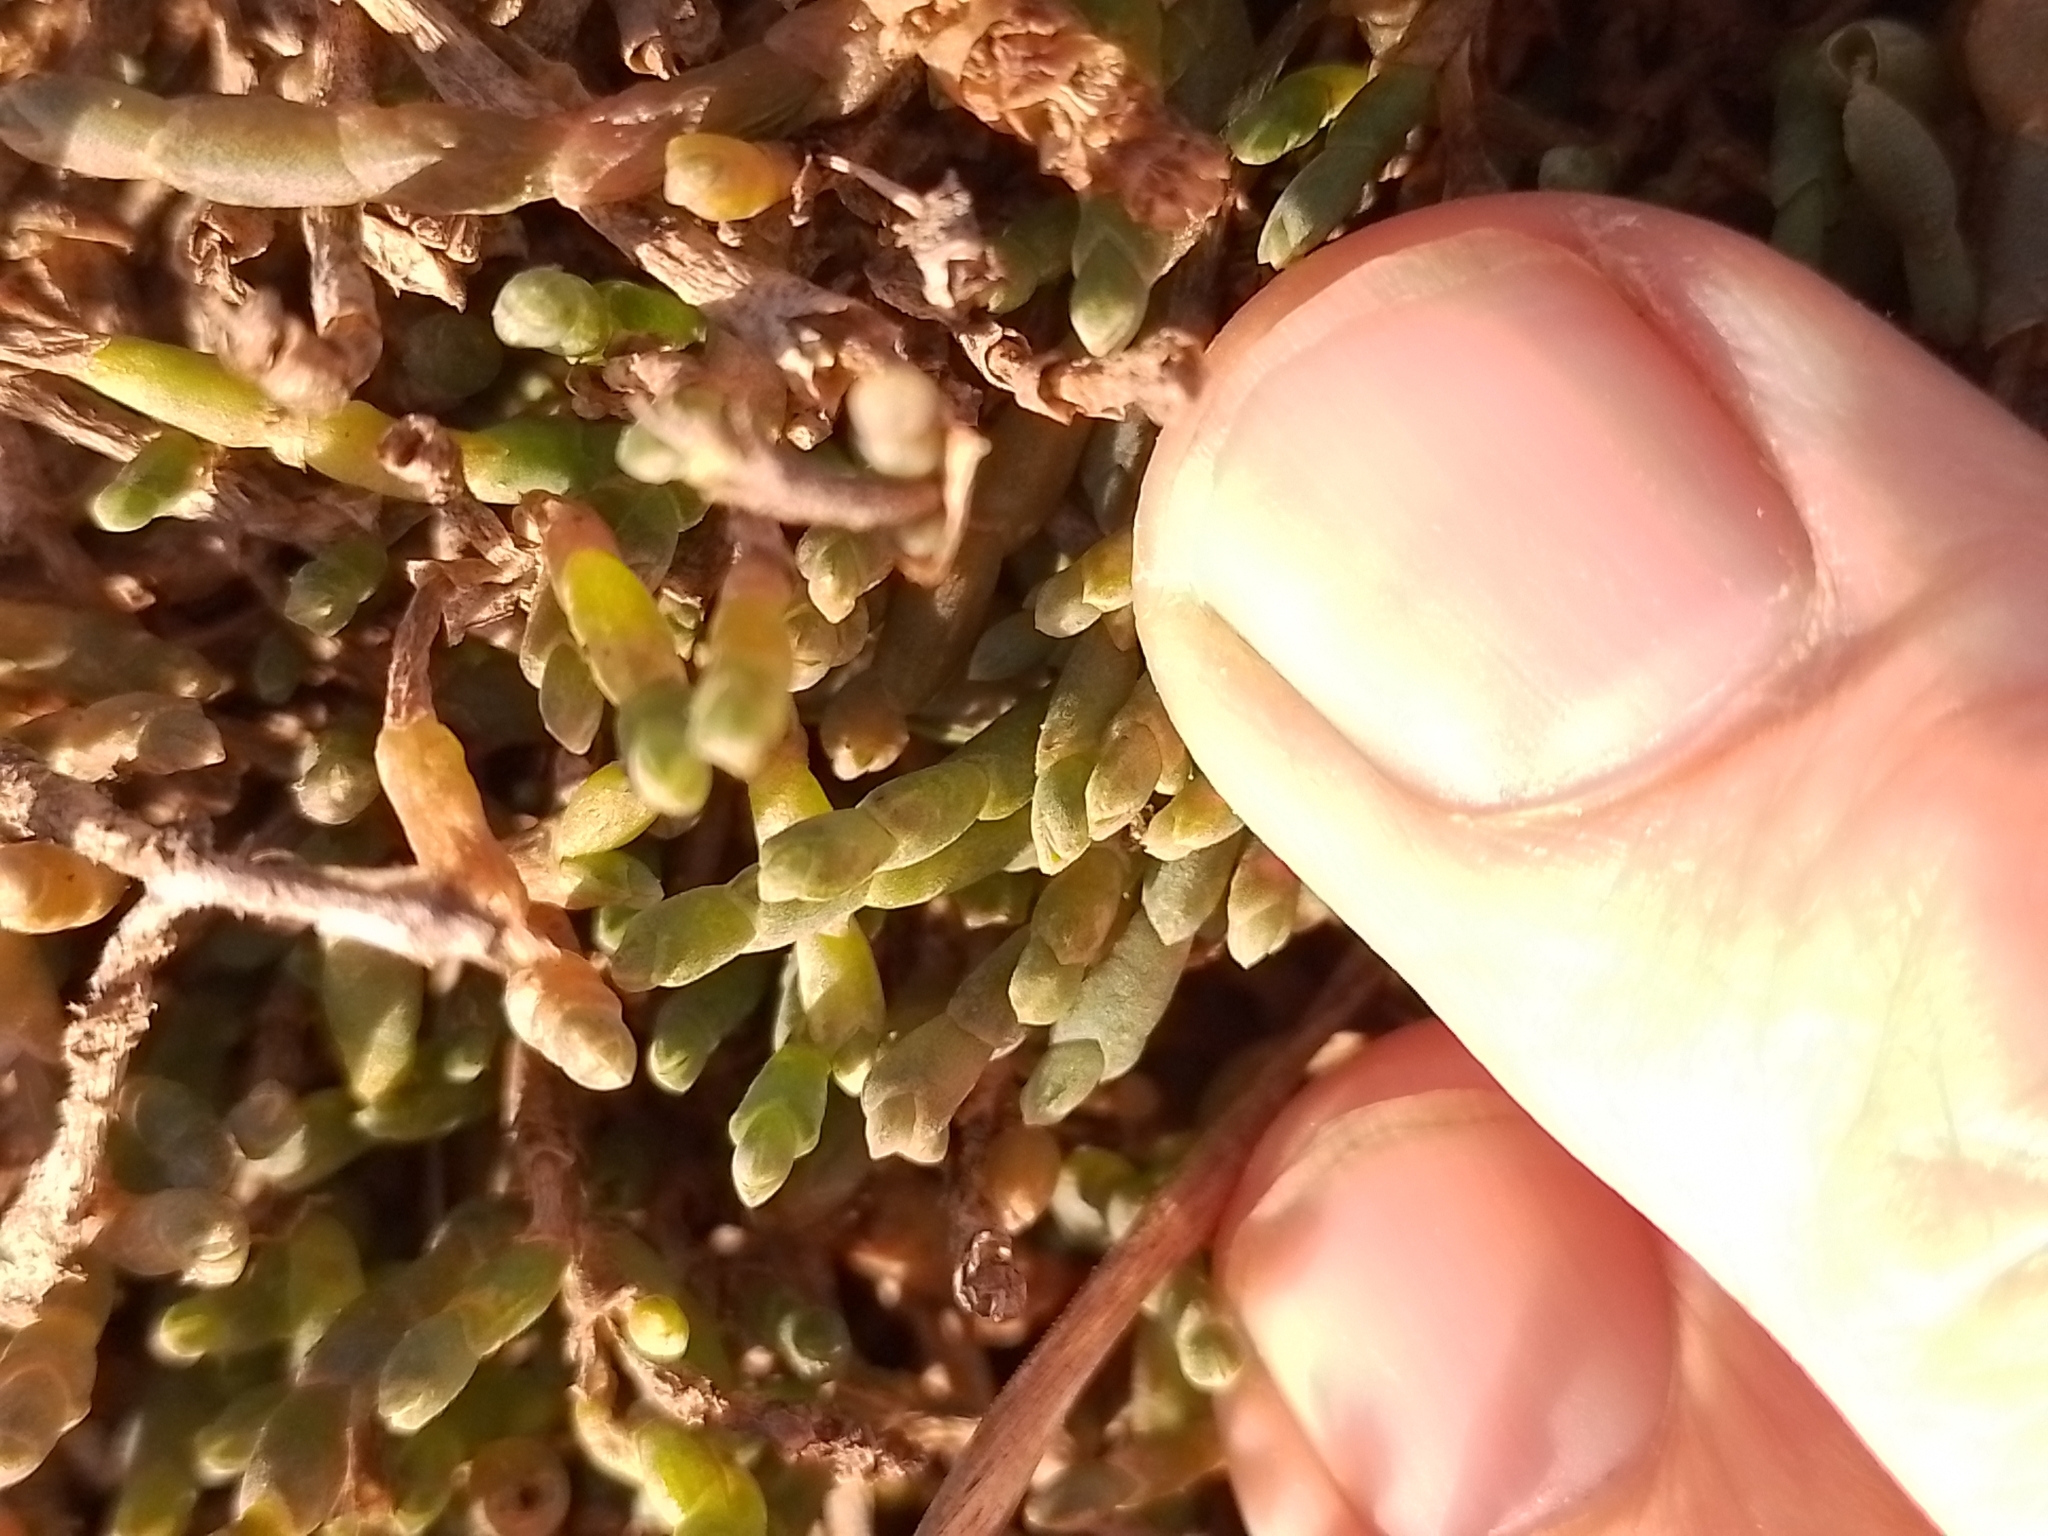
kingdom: Plantae
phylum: Tracheophyta
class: Magnoliopsida
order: Caryophyllales
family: Amaranthaceae
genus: Salicornia
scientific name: Salicornia quinqueflora
